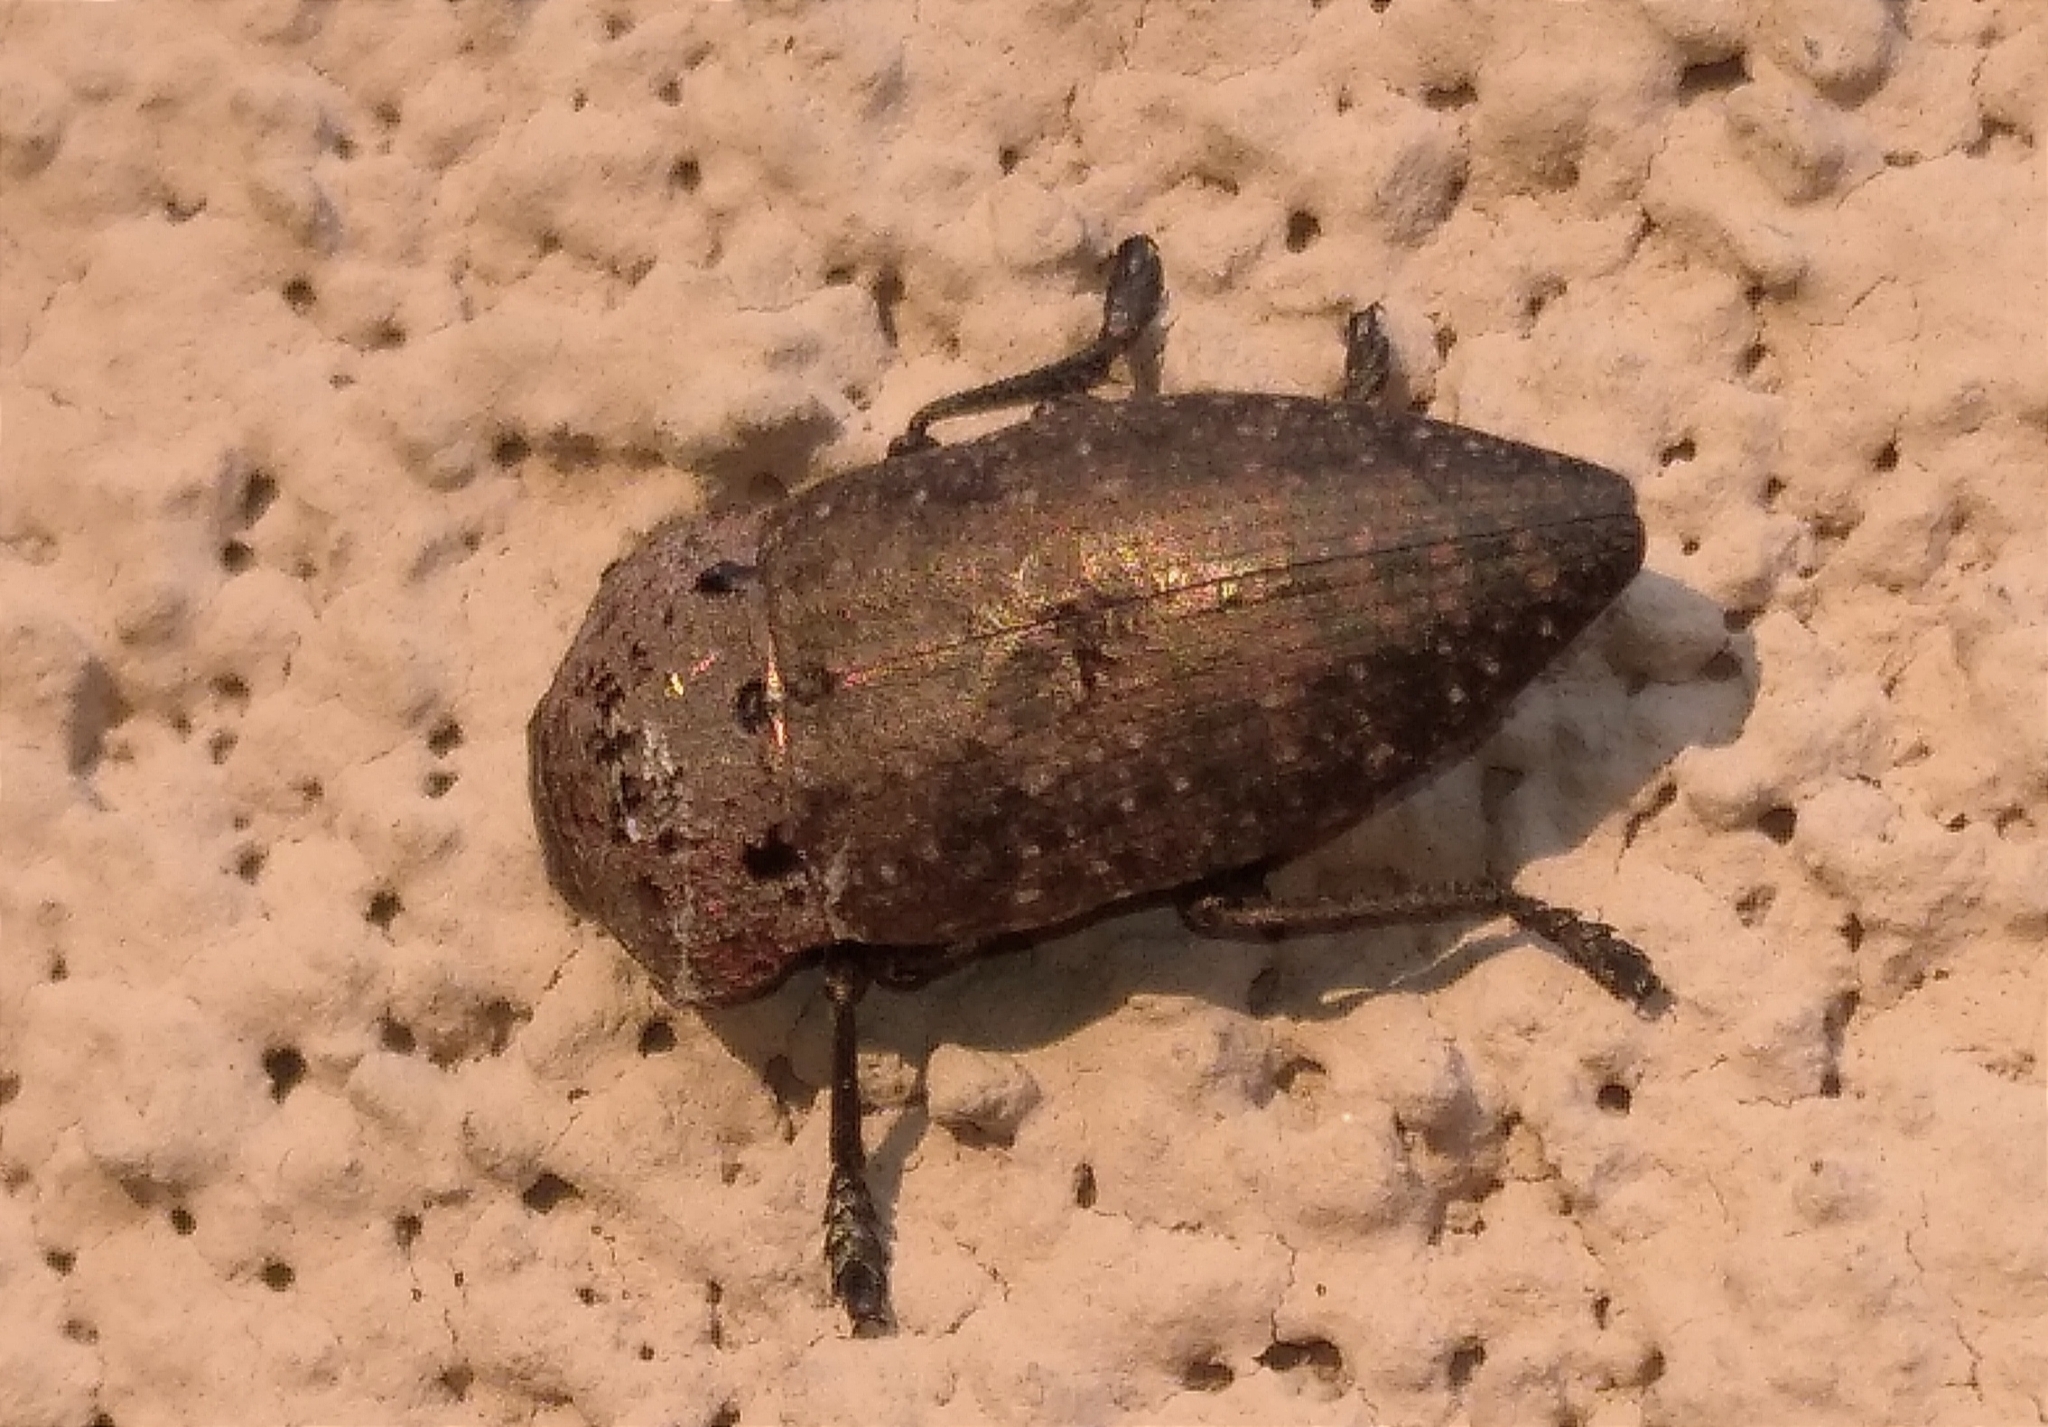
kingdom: Animalia
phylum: Arthropoda
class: Insecta
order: Coleoptera
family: Buprestidae
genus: Capnodis
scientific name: Capnodis tenebricosa
